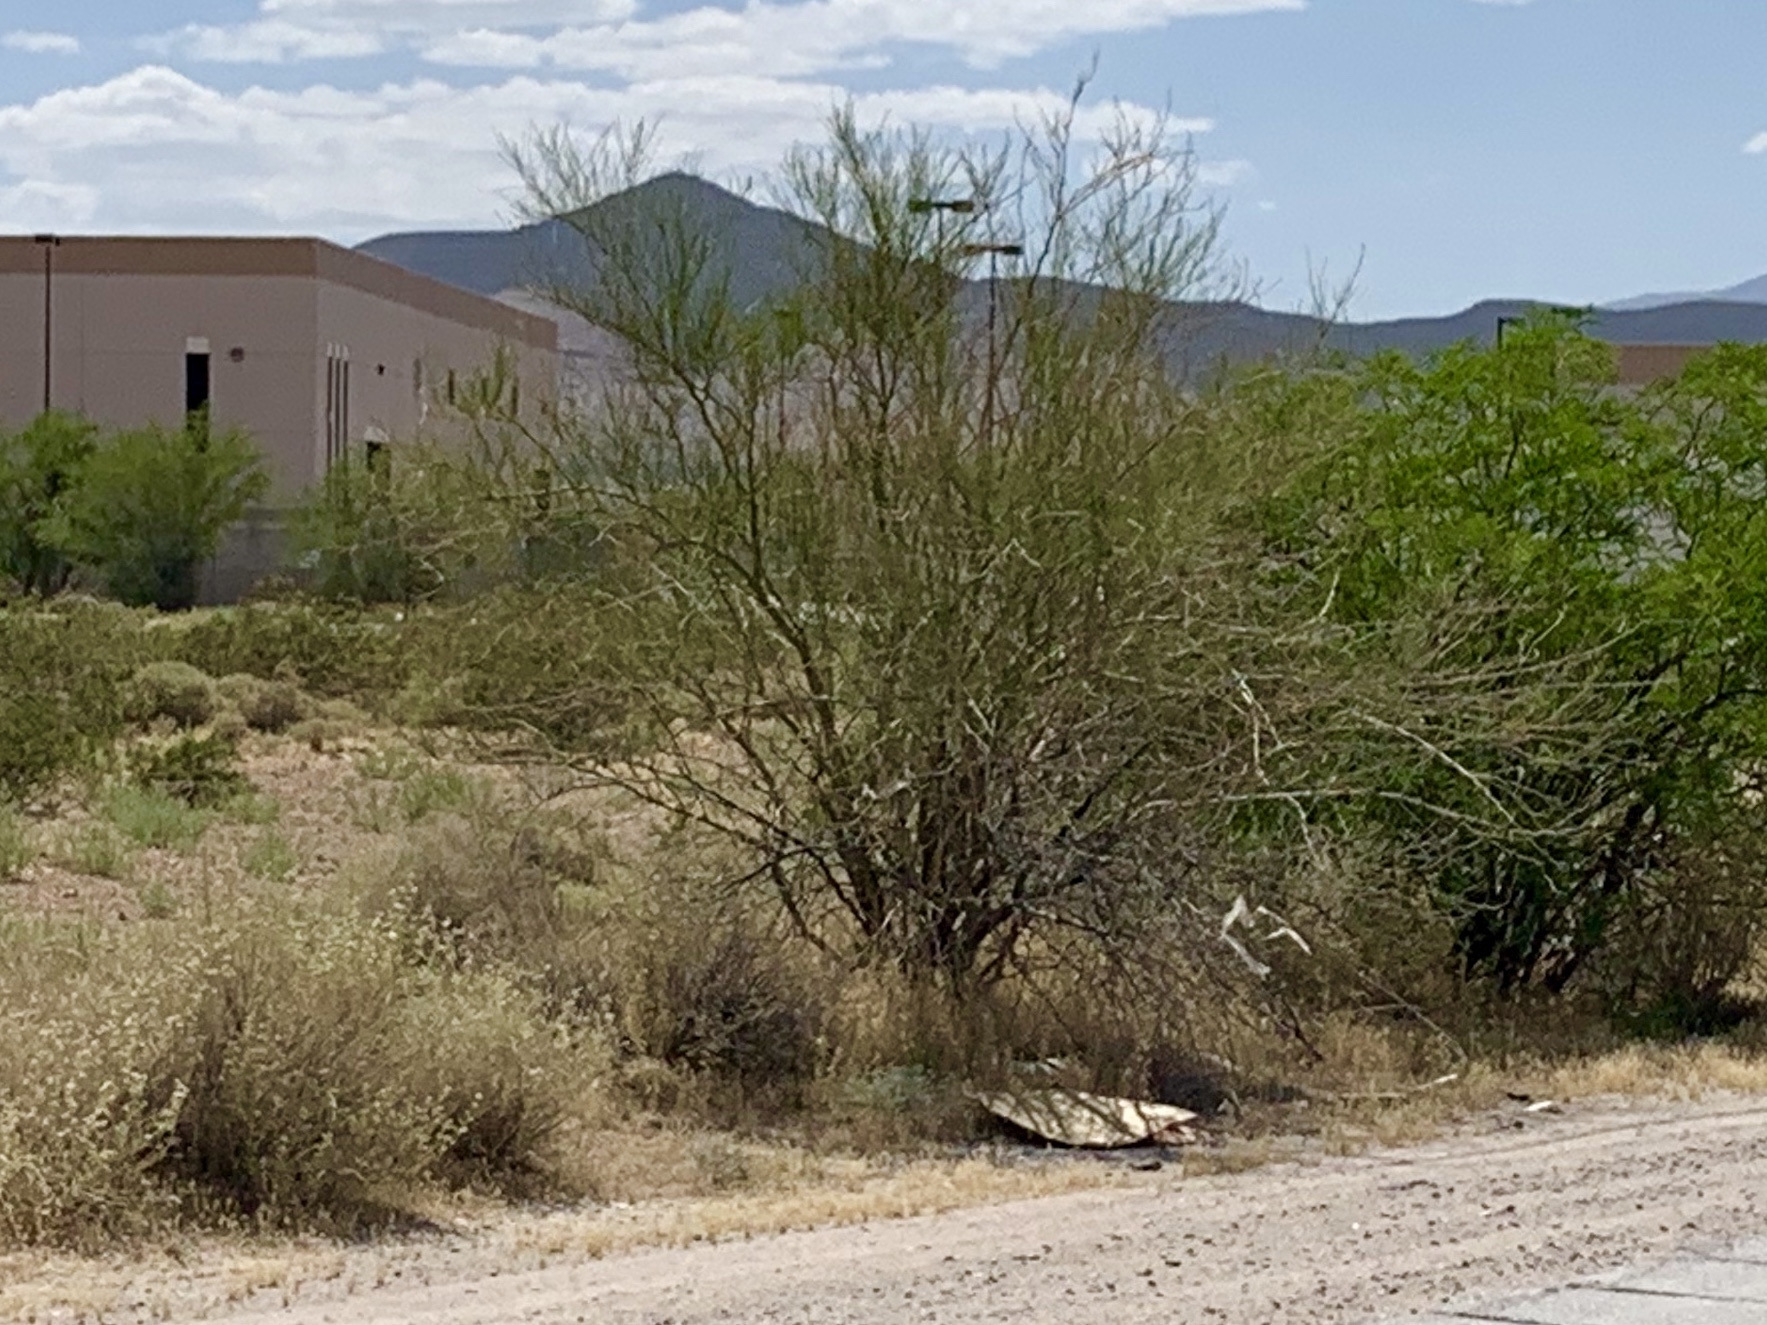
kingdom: Plantae
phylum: Tracheophyta
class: Magnoliopsida
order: Fabales
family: Fabaceae
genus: Parkinsonia
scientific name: Parkinsonia florida
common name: Blue paloverde
